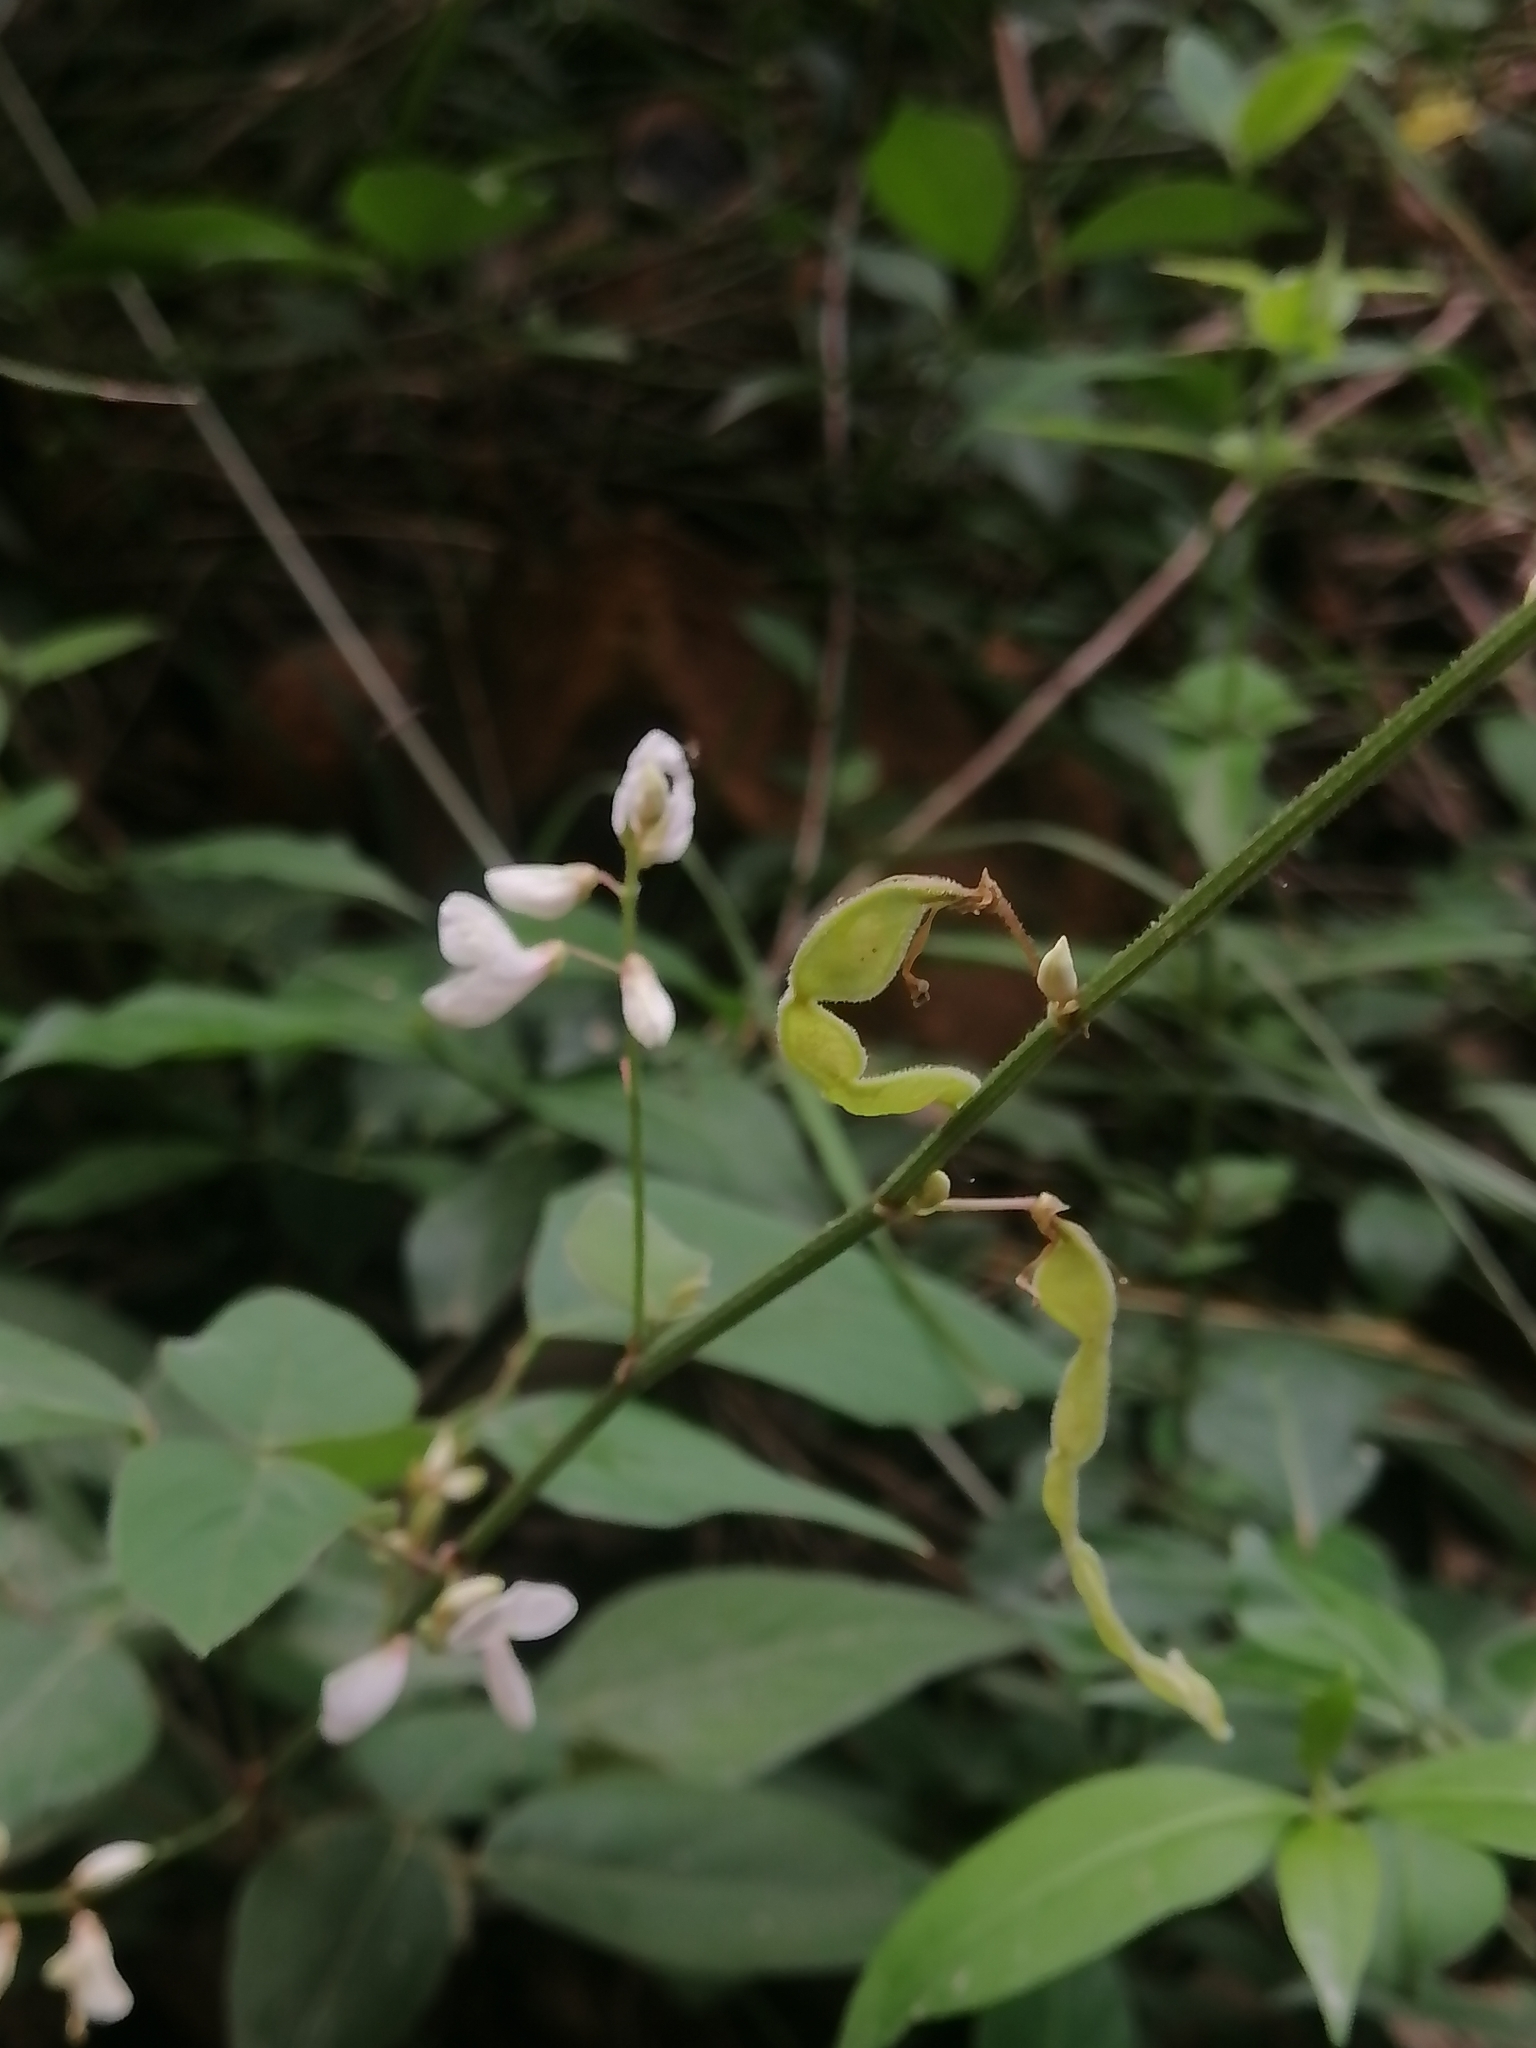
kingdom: Plantae
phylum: Tracheophyta
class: Magnoliopsida
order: Fabales
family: Fabaceae
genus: Desmodium
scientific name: Desmodium lindheimeri
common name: Lindheimer's tick-trefoil
